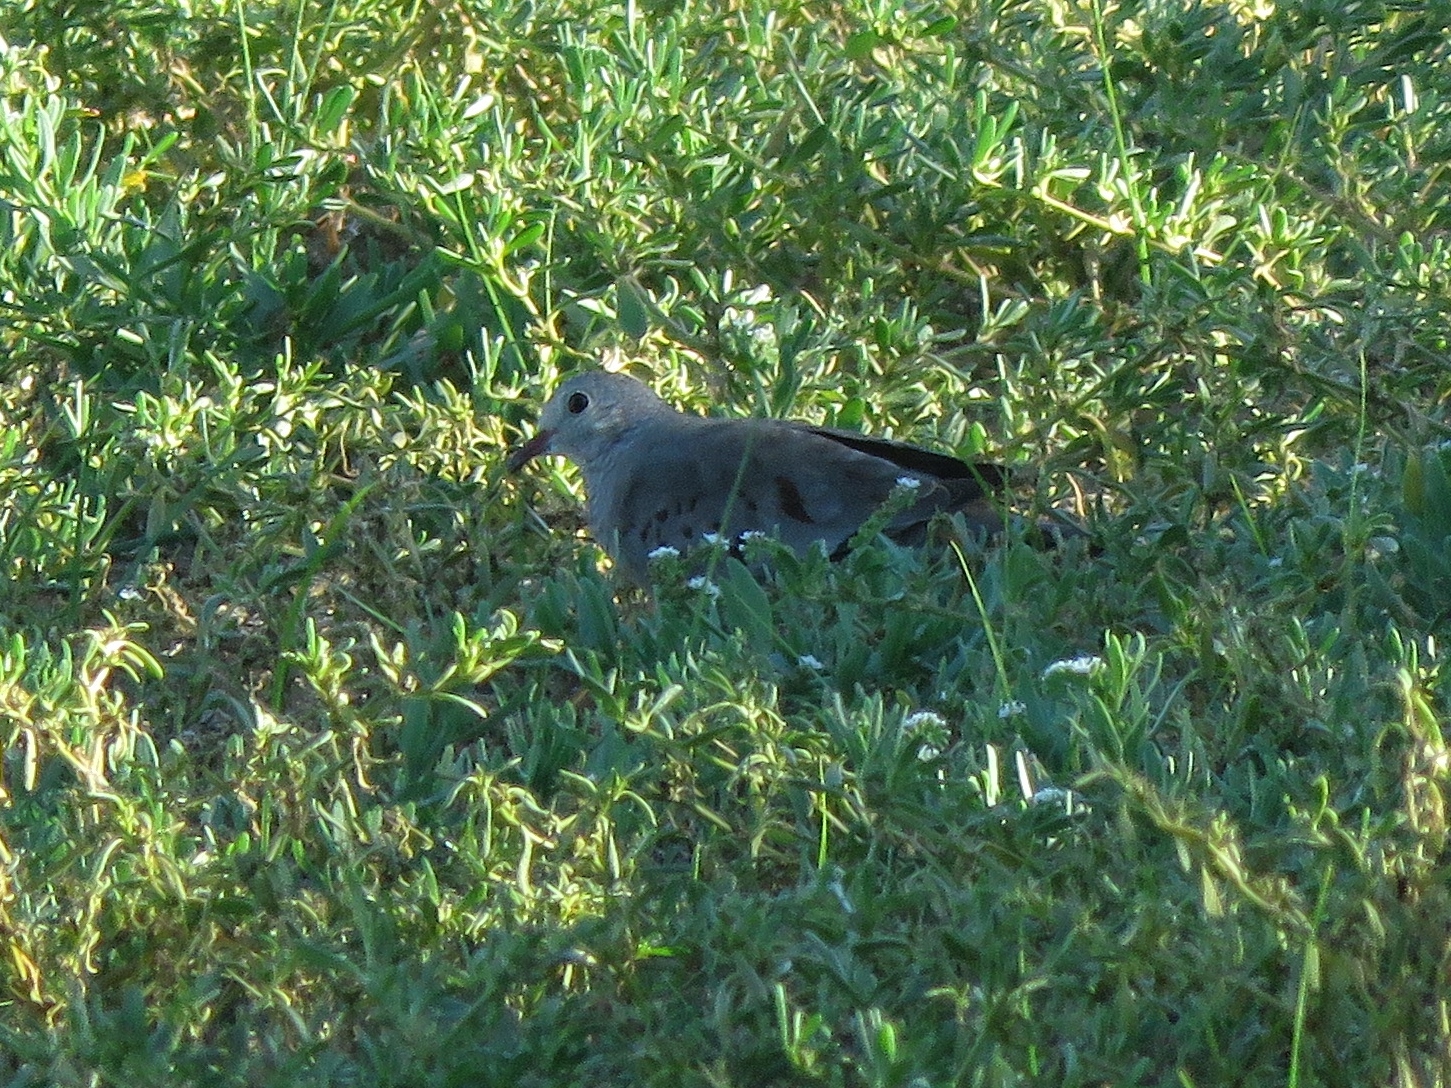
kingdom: Animalia
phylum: Chordata
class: Aves
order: Columbiformes
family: Columbidae
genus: Columbina
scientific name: Columbina passerina
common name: Common ground-dove
